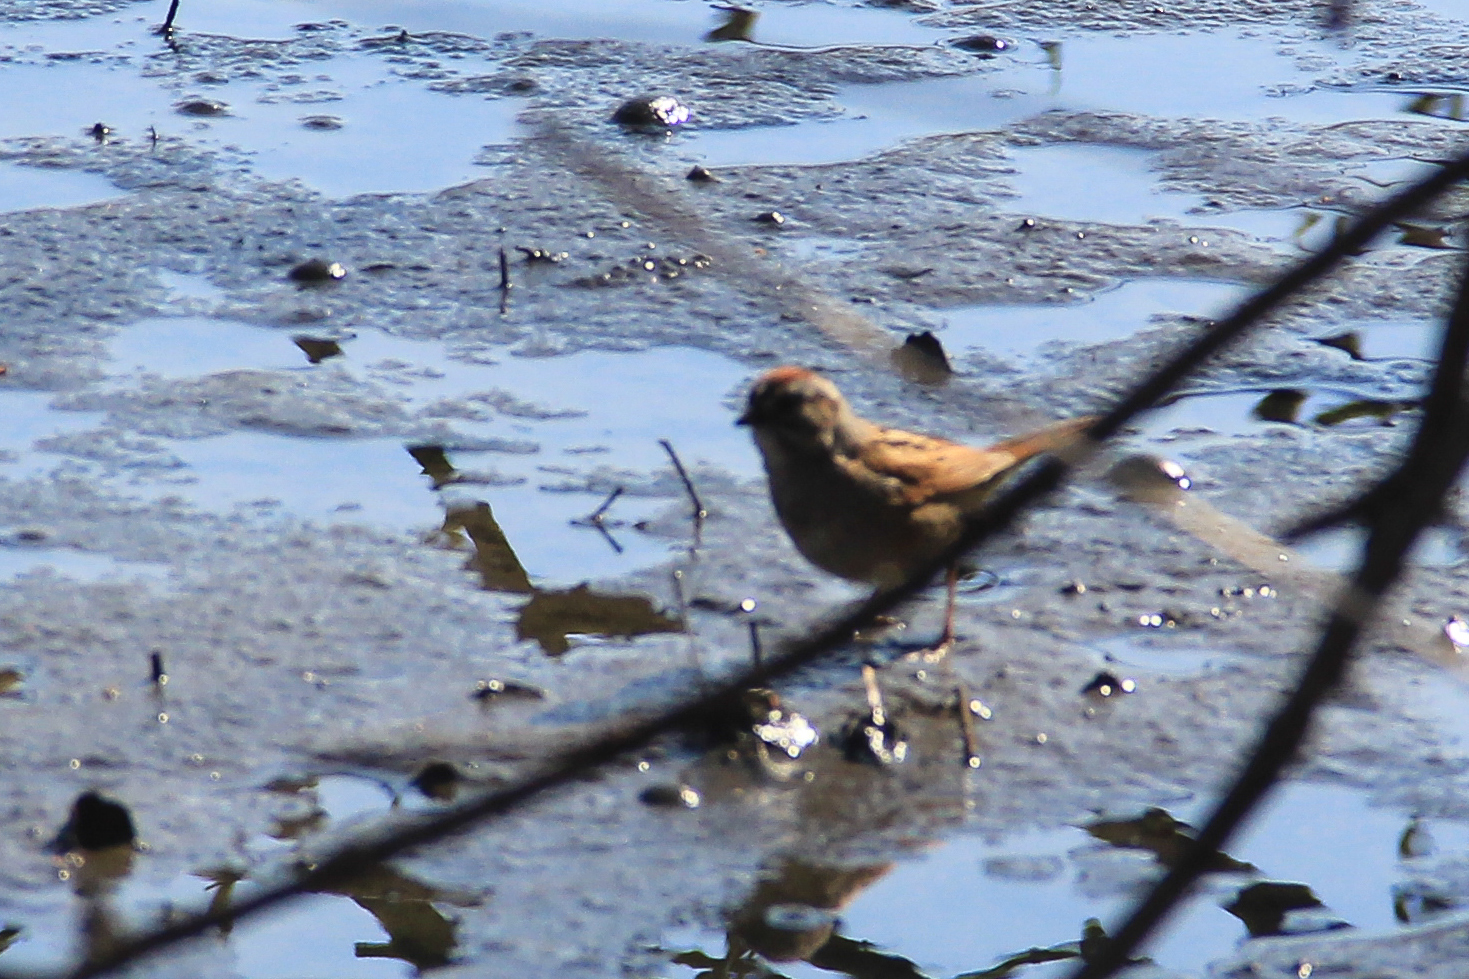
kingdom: Animalia
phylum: Chordata
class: Aves
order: Passeriformes
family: Passerellidae
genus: Melospiza
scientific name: Melospiza georgiana
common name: Swamp sparrow
